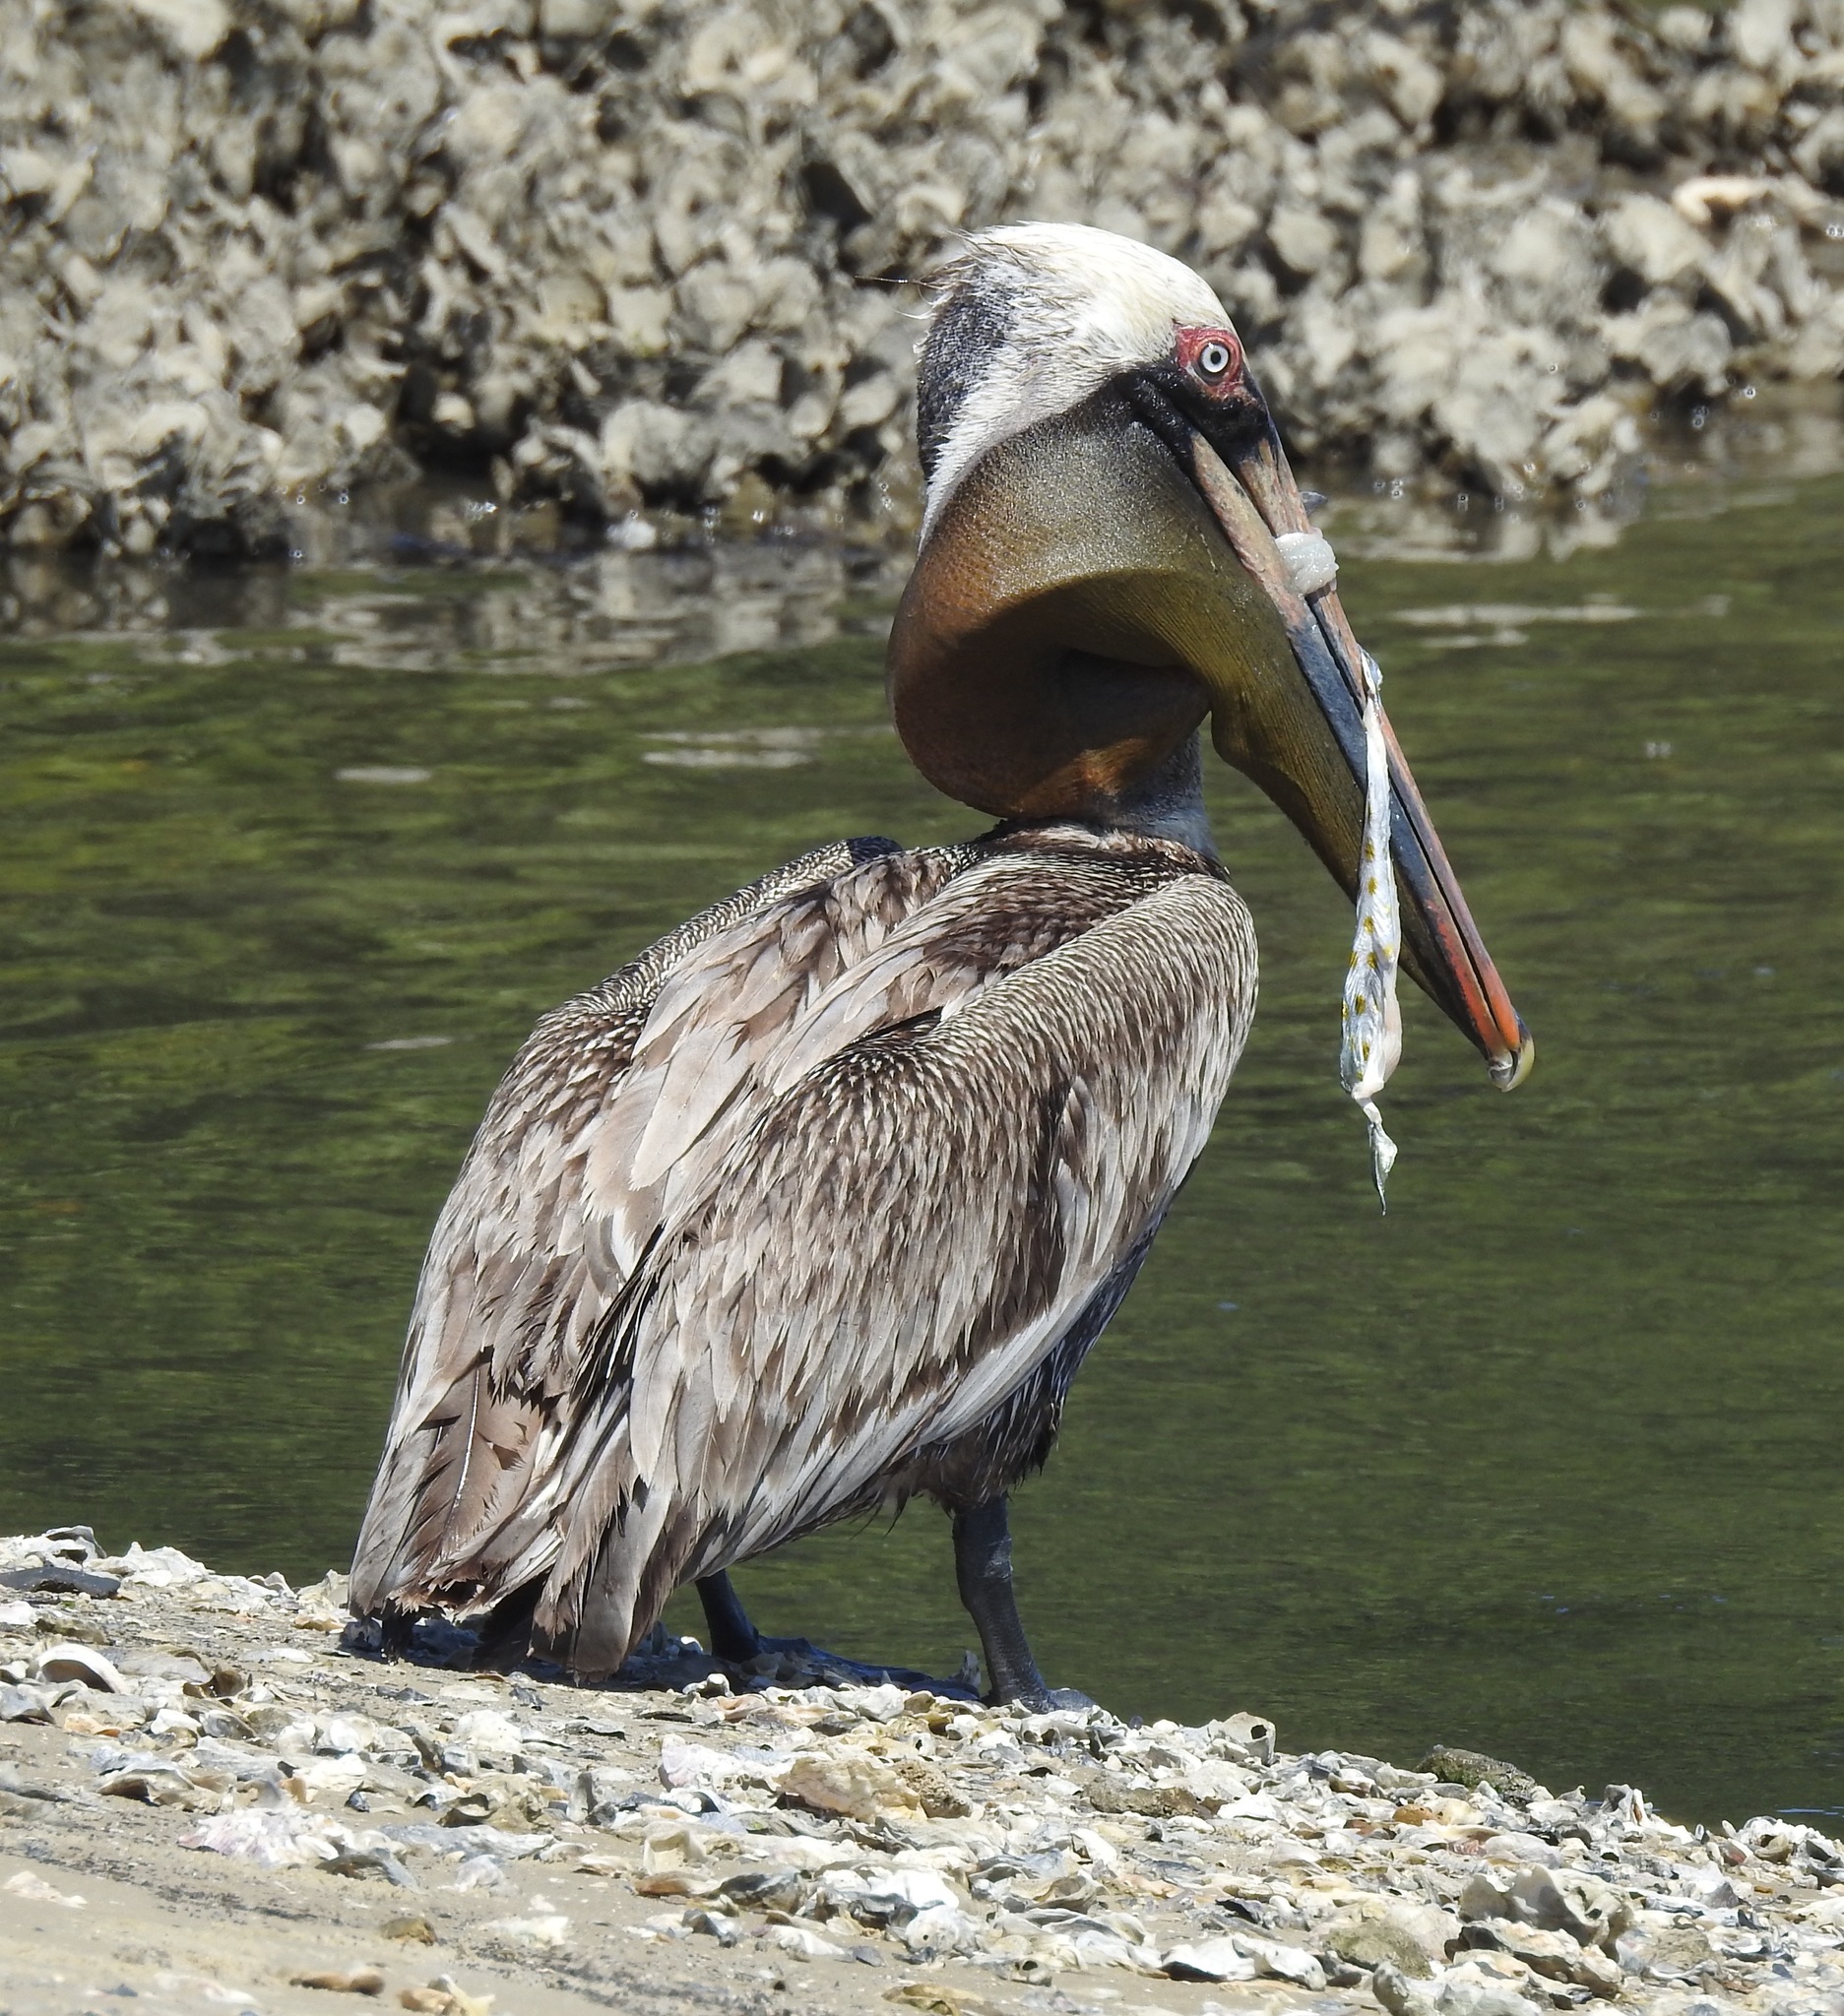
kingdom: Animalia
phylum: Chordata
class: Aves
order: Pelecaniformes
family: Pelecanidae
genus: Pelecanus
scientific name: Pelecanus occidentalis
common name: Brown pelican
